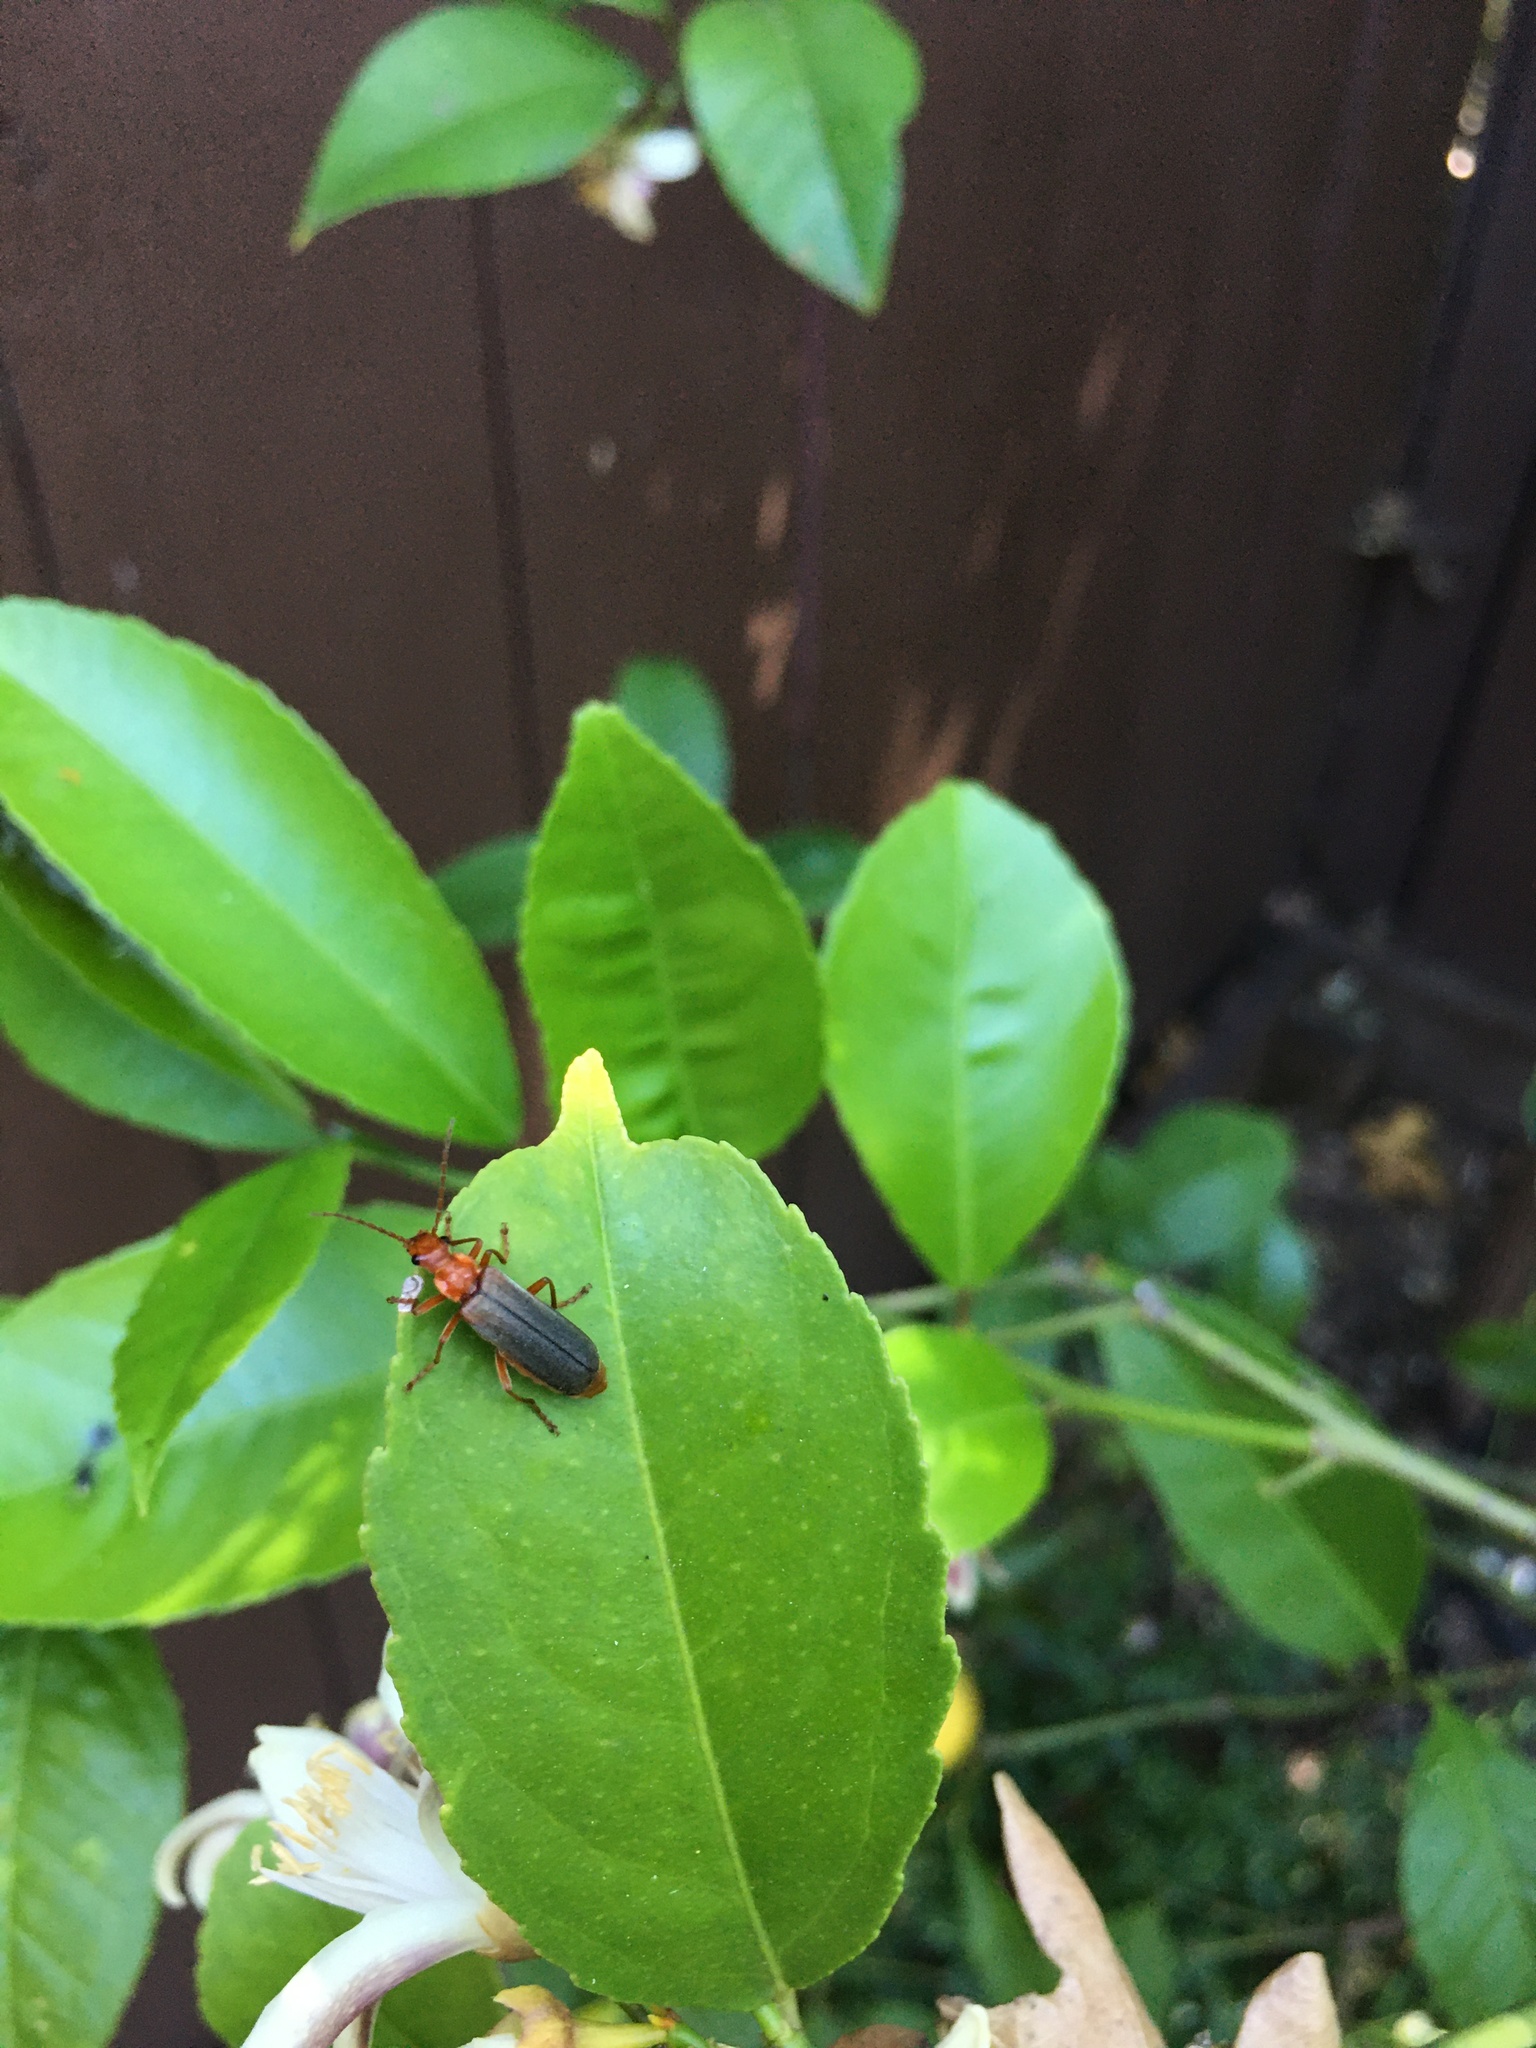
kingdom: Animalia
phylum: Arthropoda
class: Insecta
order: Coleoptera
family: Cantharidae
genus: Podabrus
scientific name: Podabrus pruinosus
